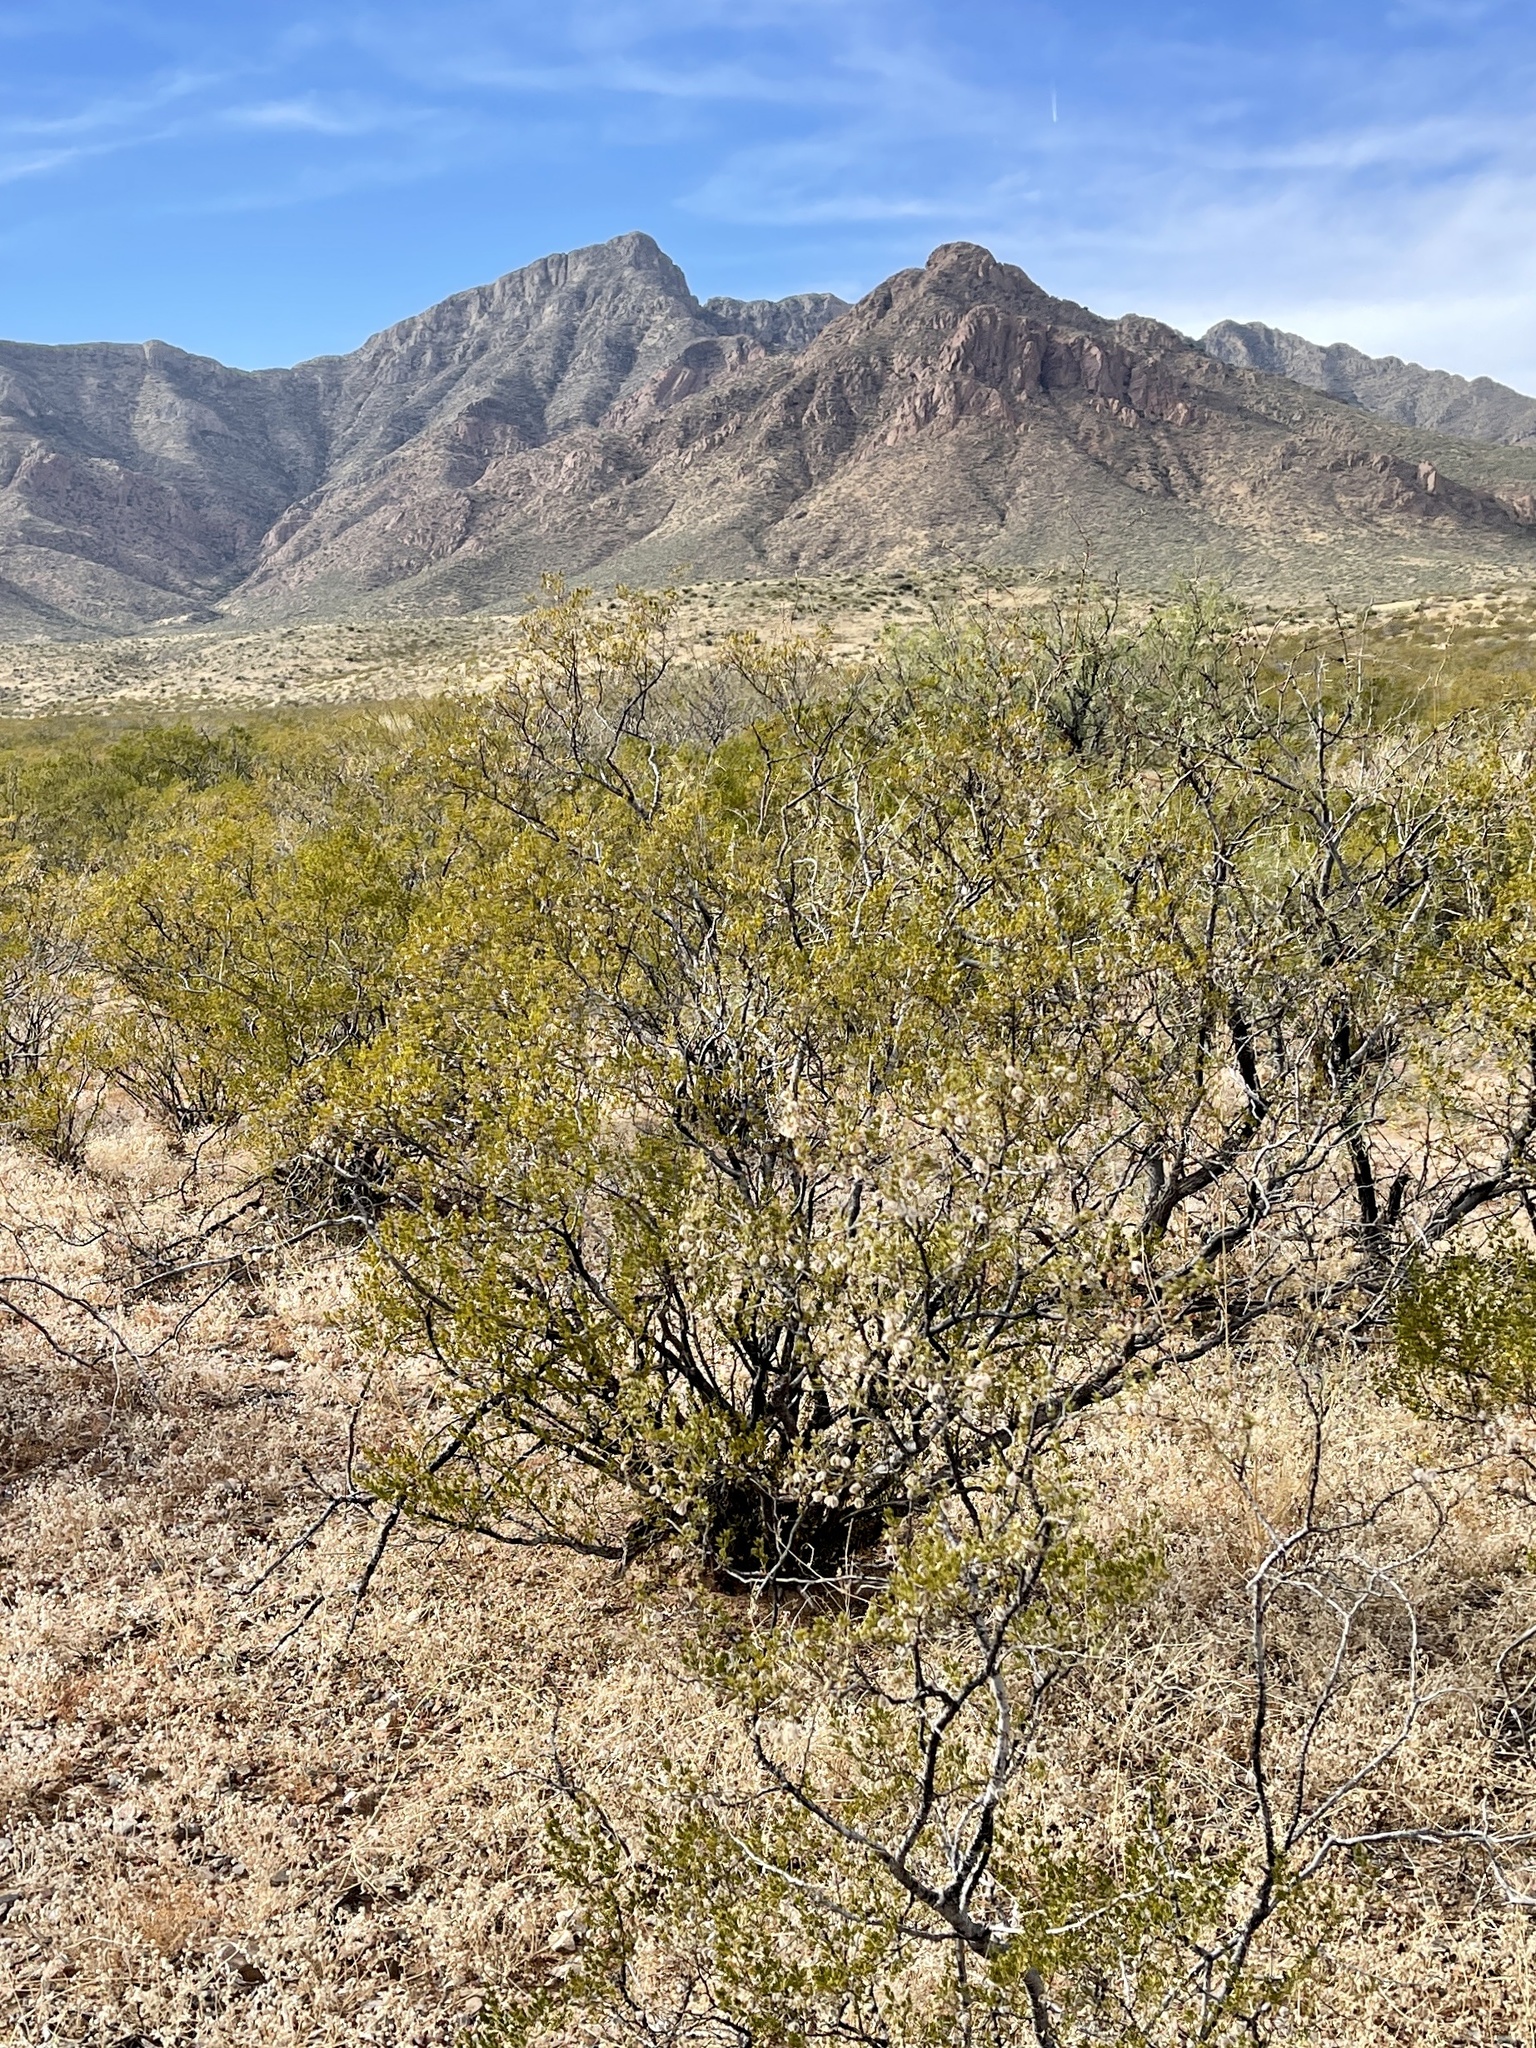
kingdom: Plantae
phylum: Tracheophyta
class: Magnoliopsida
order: Zygophyllales
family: Zygophyllaceae
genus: Larrea
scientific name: Larrea tridentata
